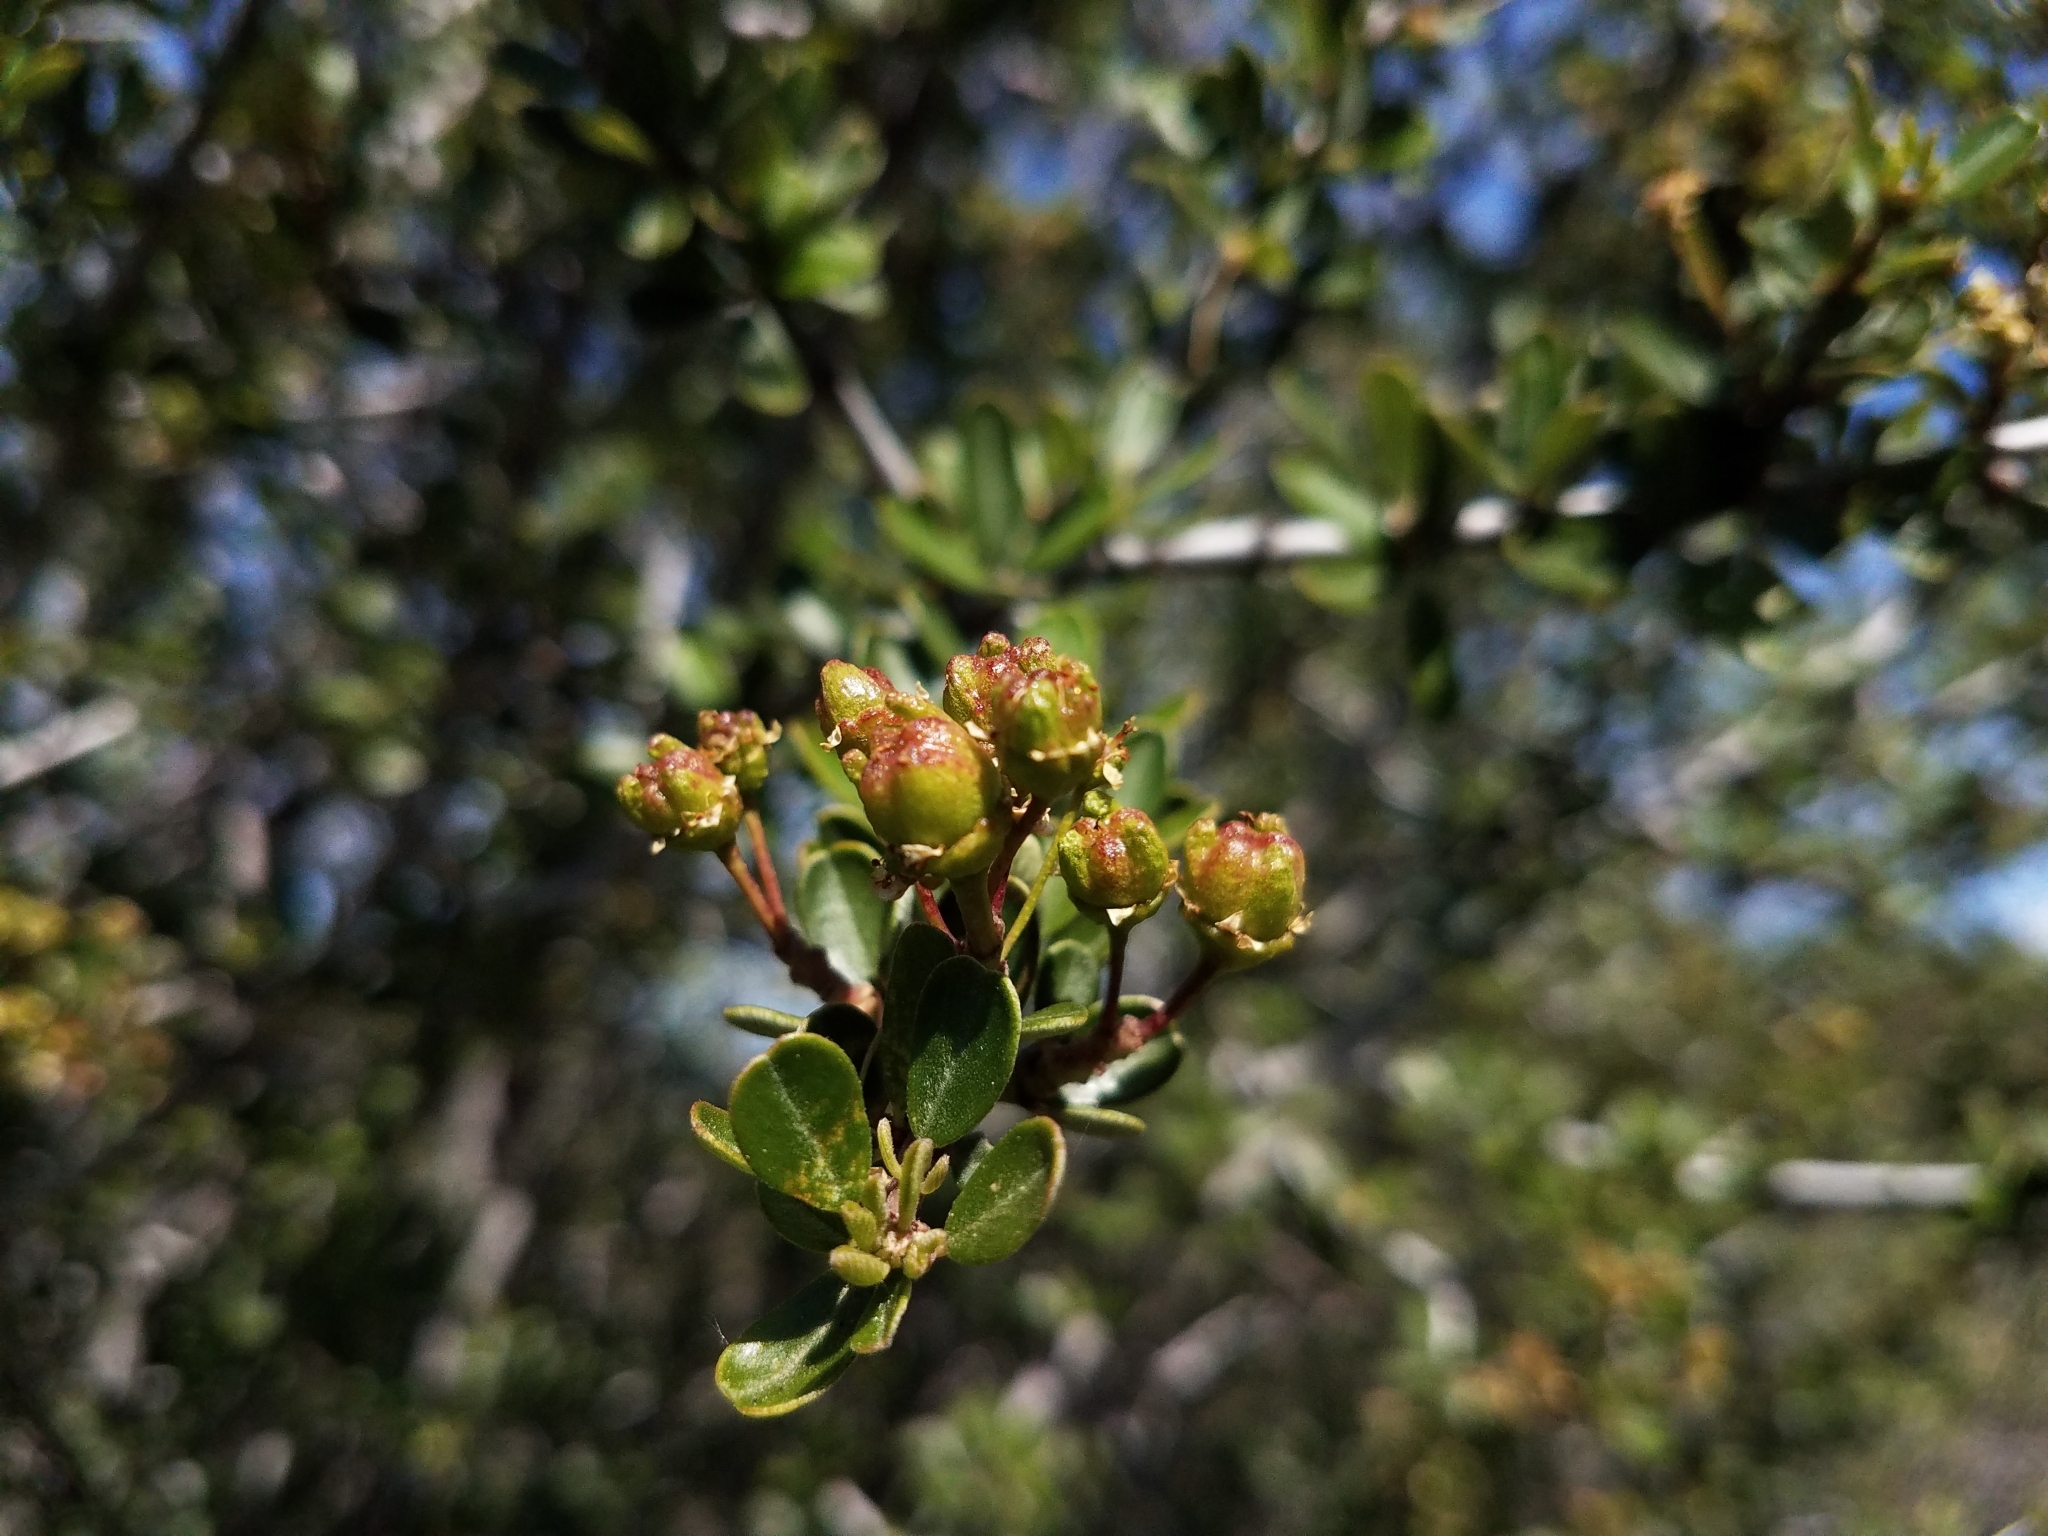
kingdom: Plantae
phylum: Tracheophyta
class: Magnoliopsida
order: Rosales
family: Rhamnaceae
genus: Ceanothus
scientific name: Ceanothus cuneatus
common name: Cuneate ceanothus
